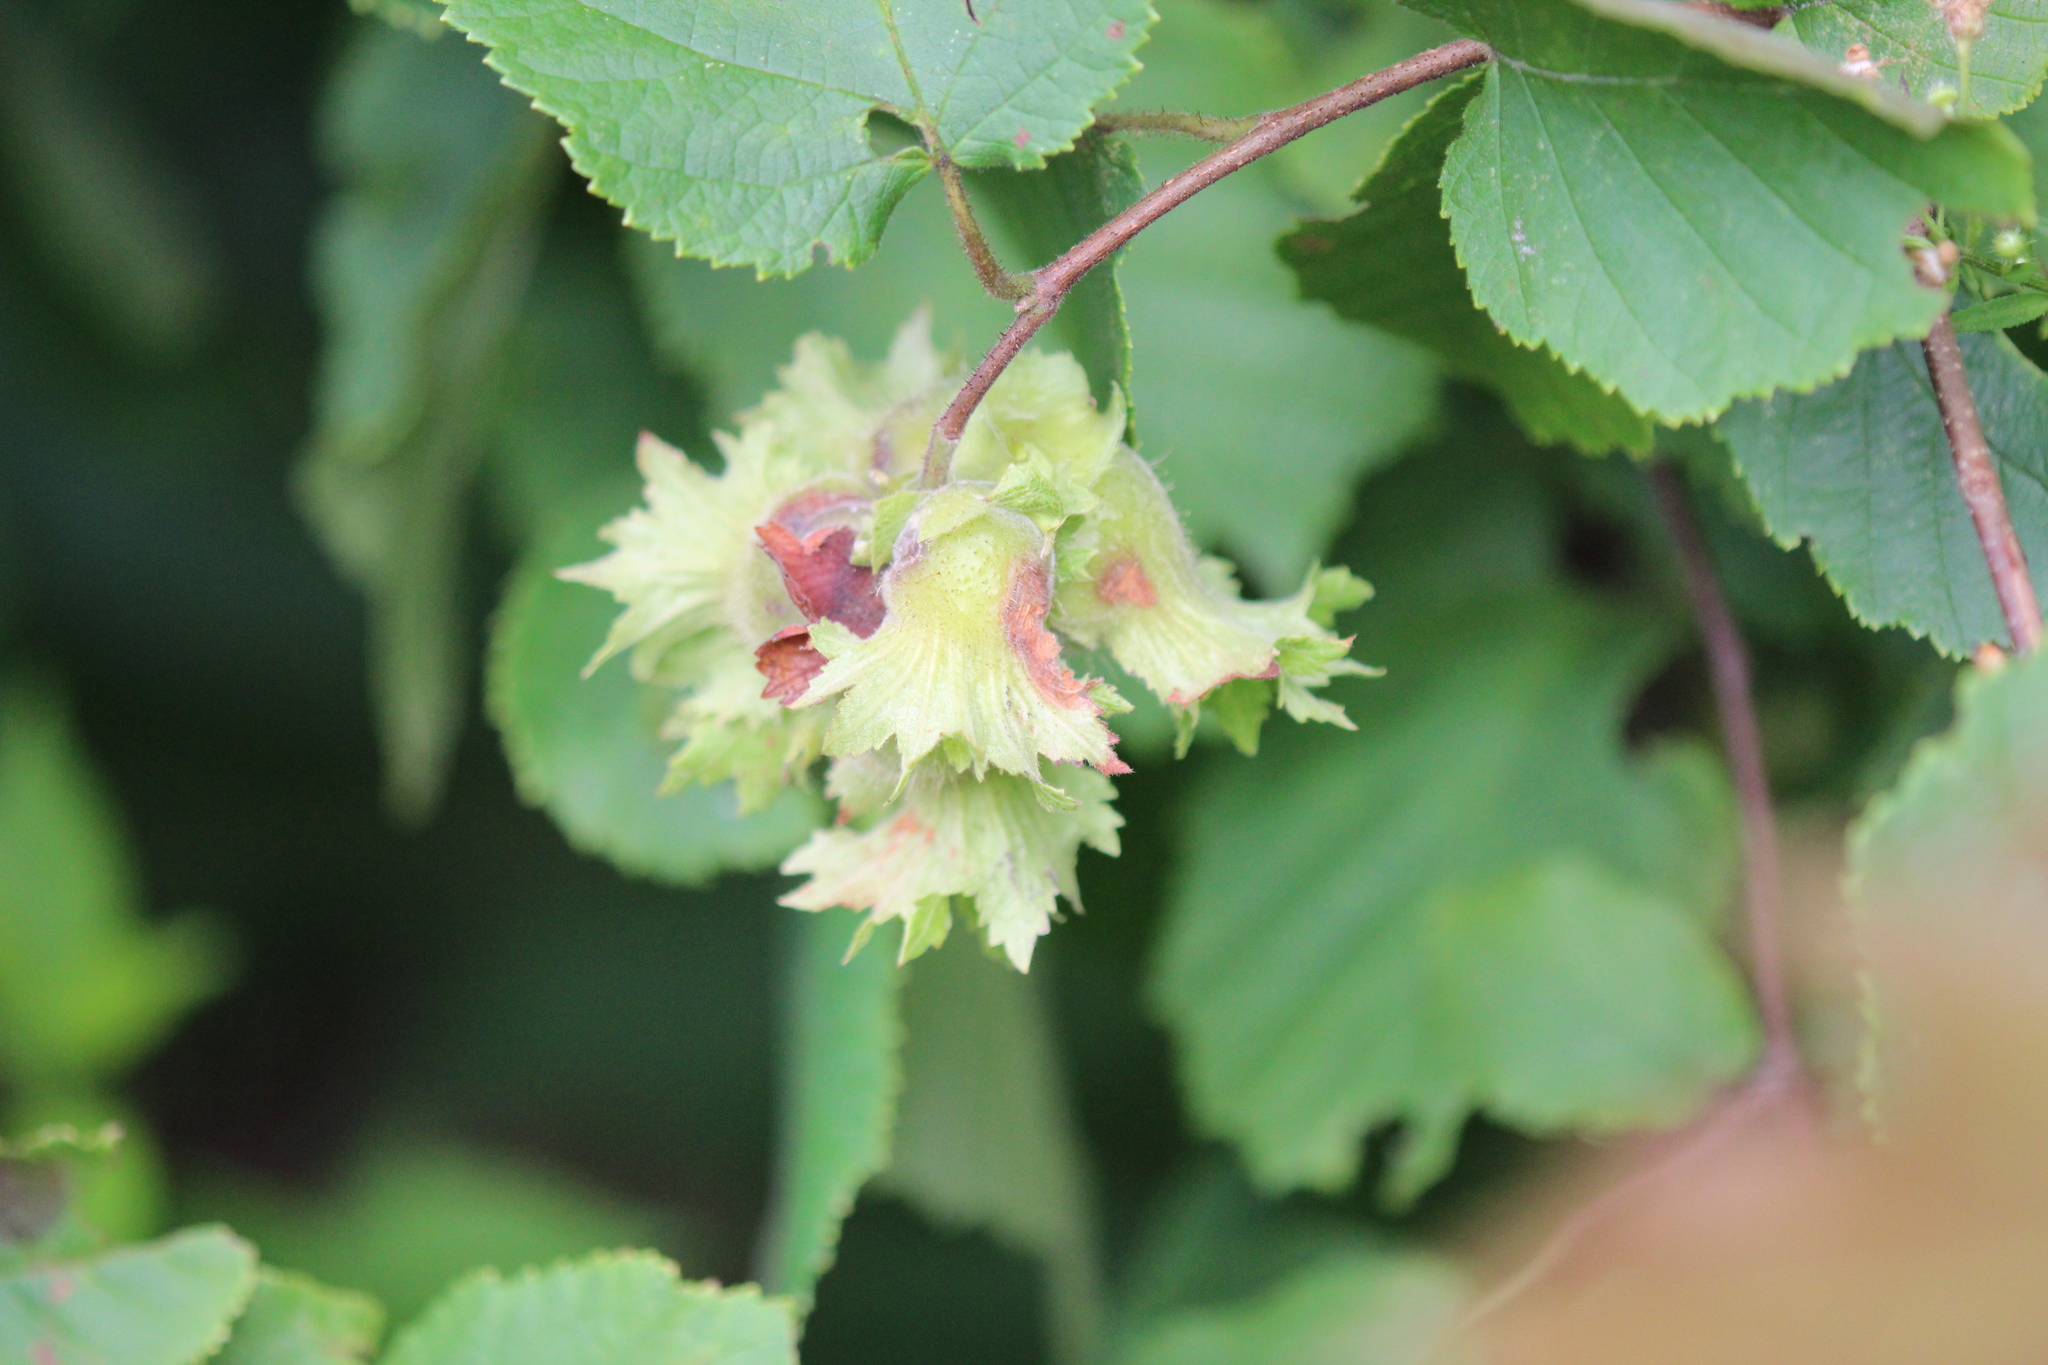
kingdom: Plantae
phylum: Tracheophyta
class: Magnoliopsida
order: Fagales
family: Betulaceae
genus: Corylus
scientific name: Corylus americana
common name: American hazel
